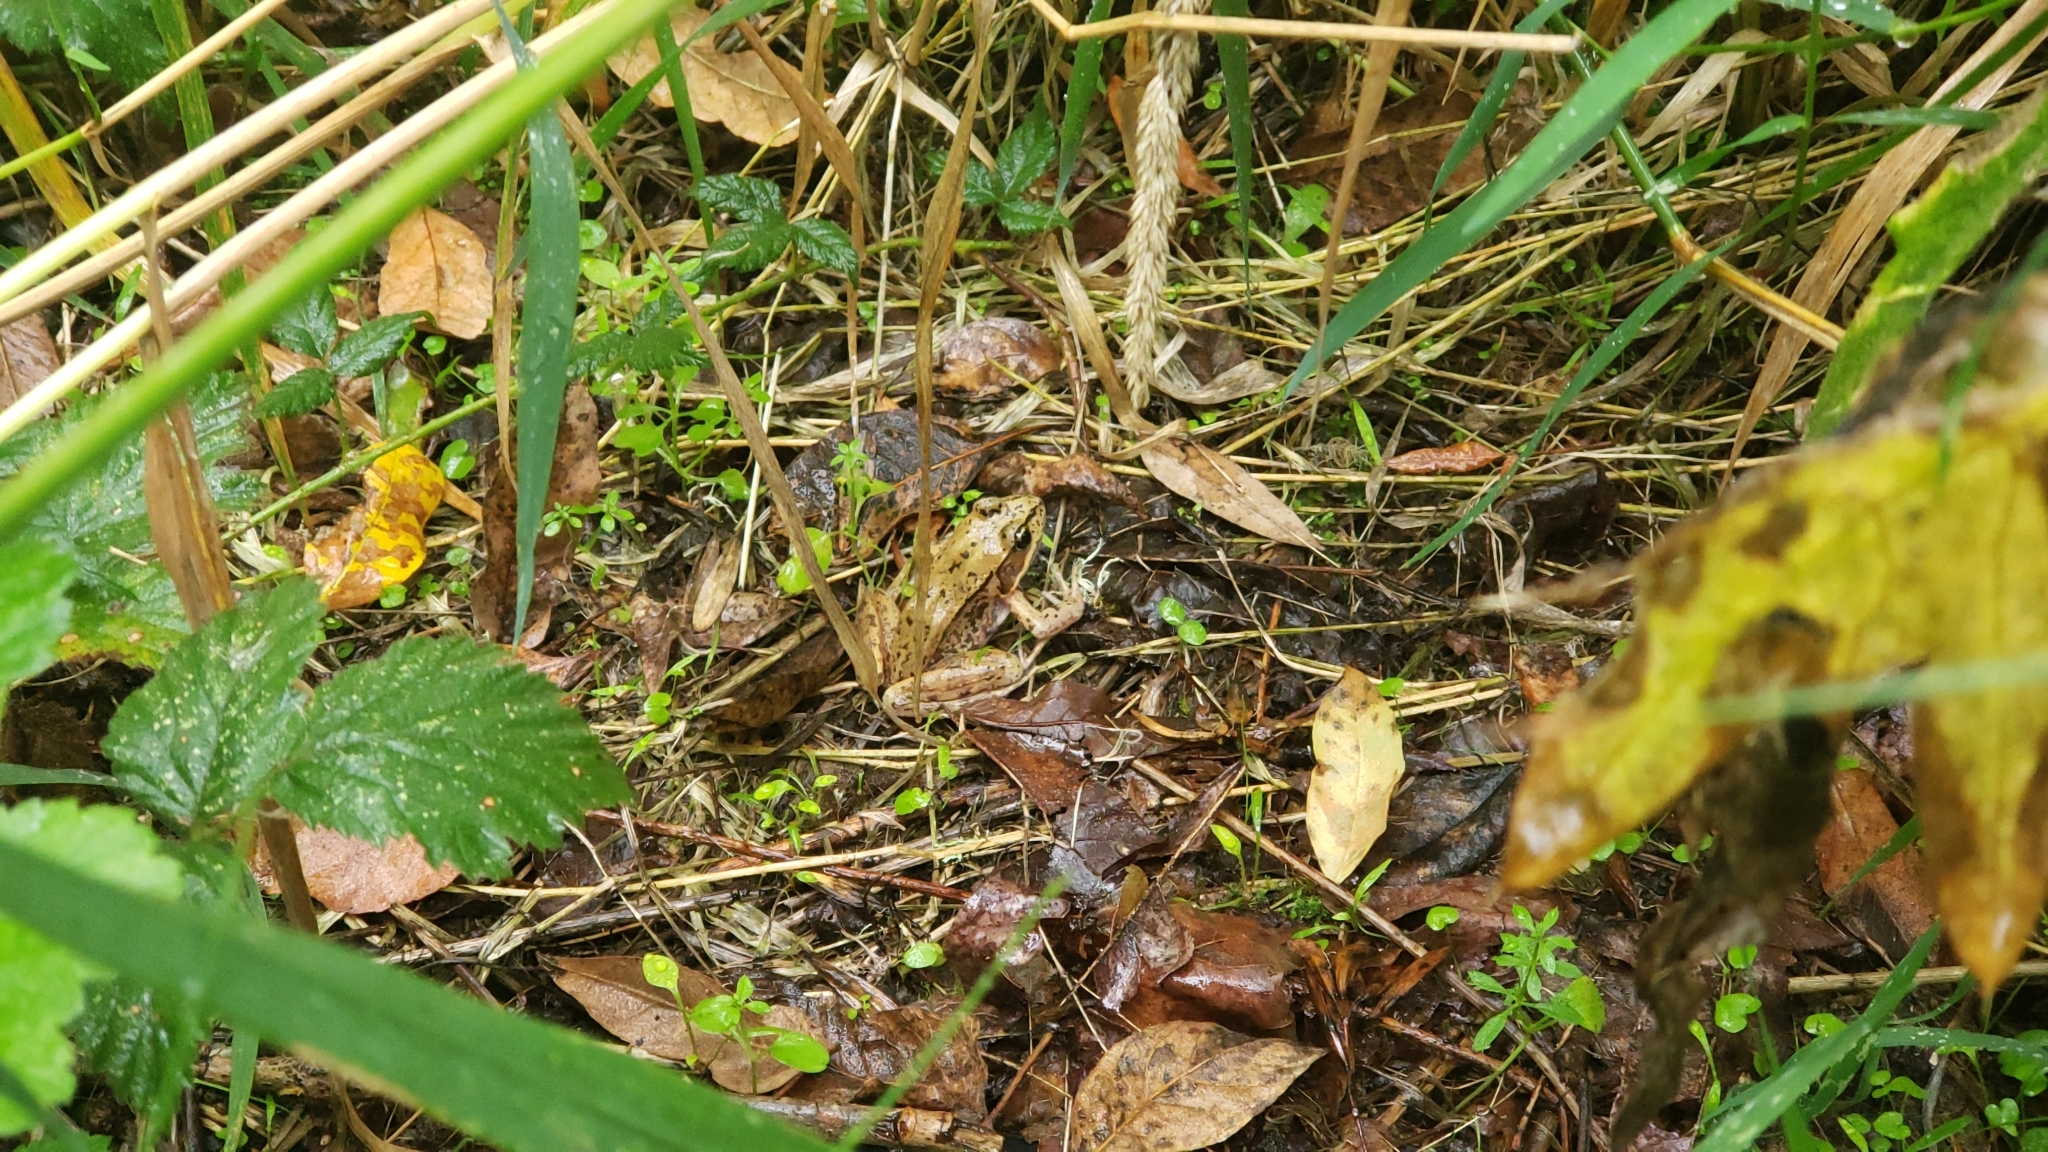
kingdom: Animalia
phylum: Chordata
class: Amphibia
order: Anura
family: Ranidae
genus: Rana
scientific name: Rana aurora
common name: Red-legged frog
